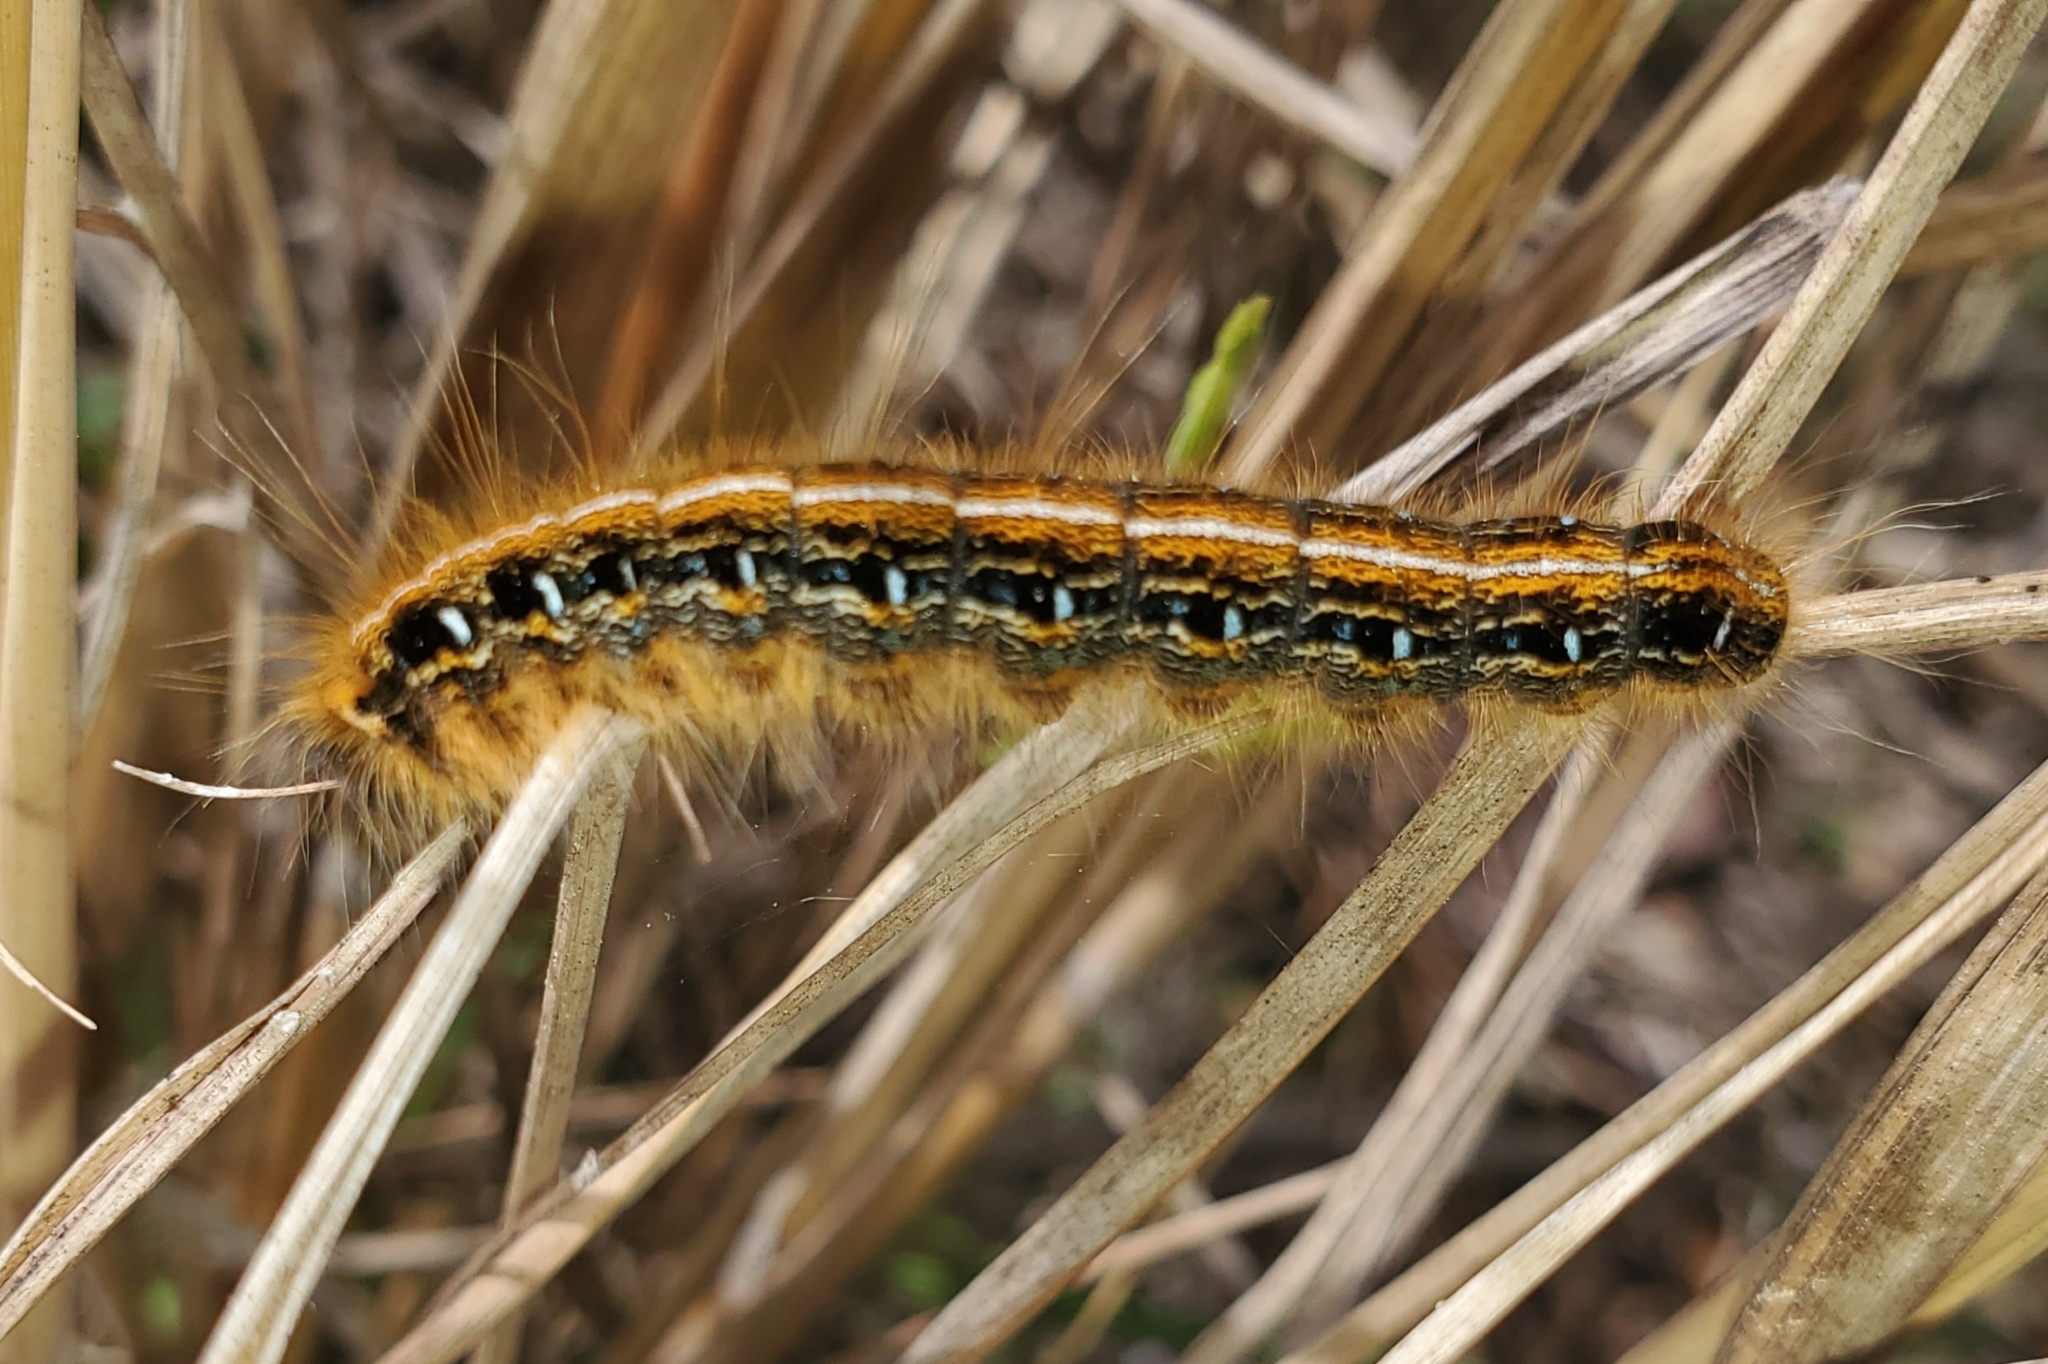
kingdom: Animalia
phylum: Arthropoda
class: Insecta
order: Lepidoptera
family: Lasiocampidae
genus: Malacosoma
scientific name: Malacosoma americana
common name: Eastern tent caterpillar moth
